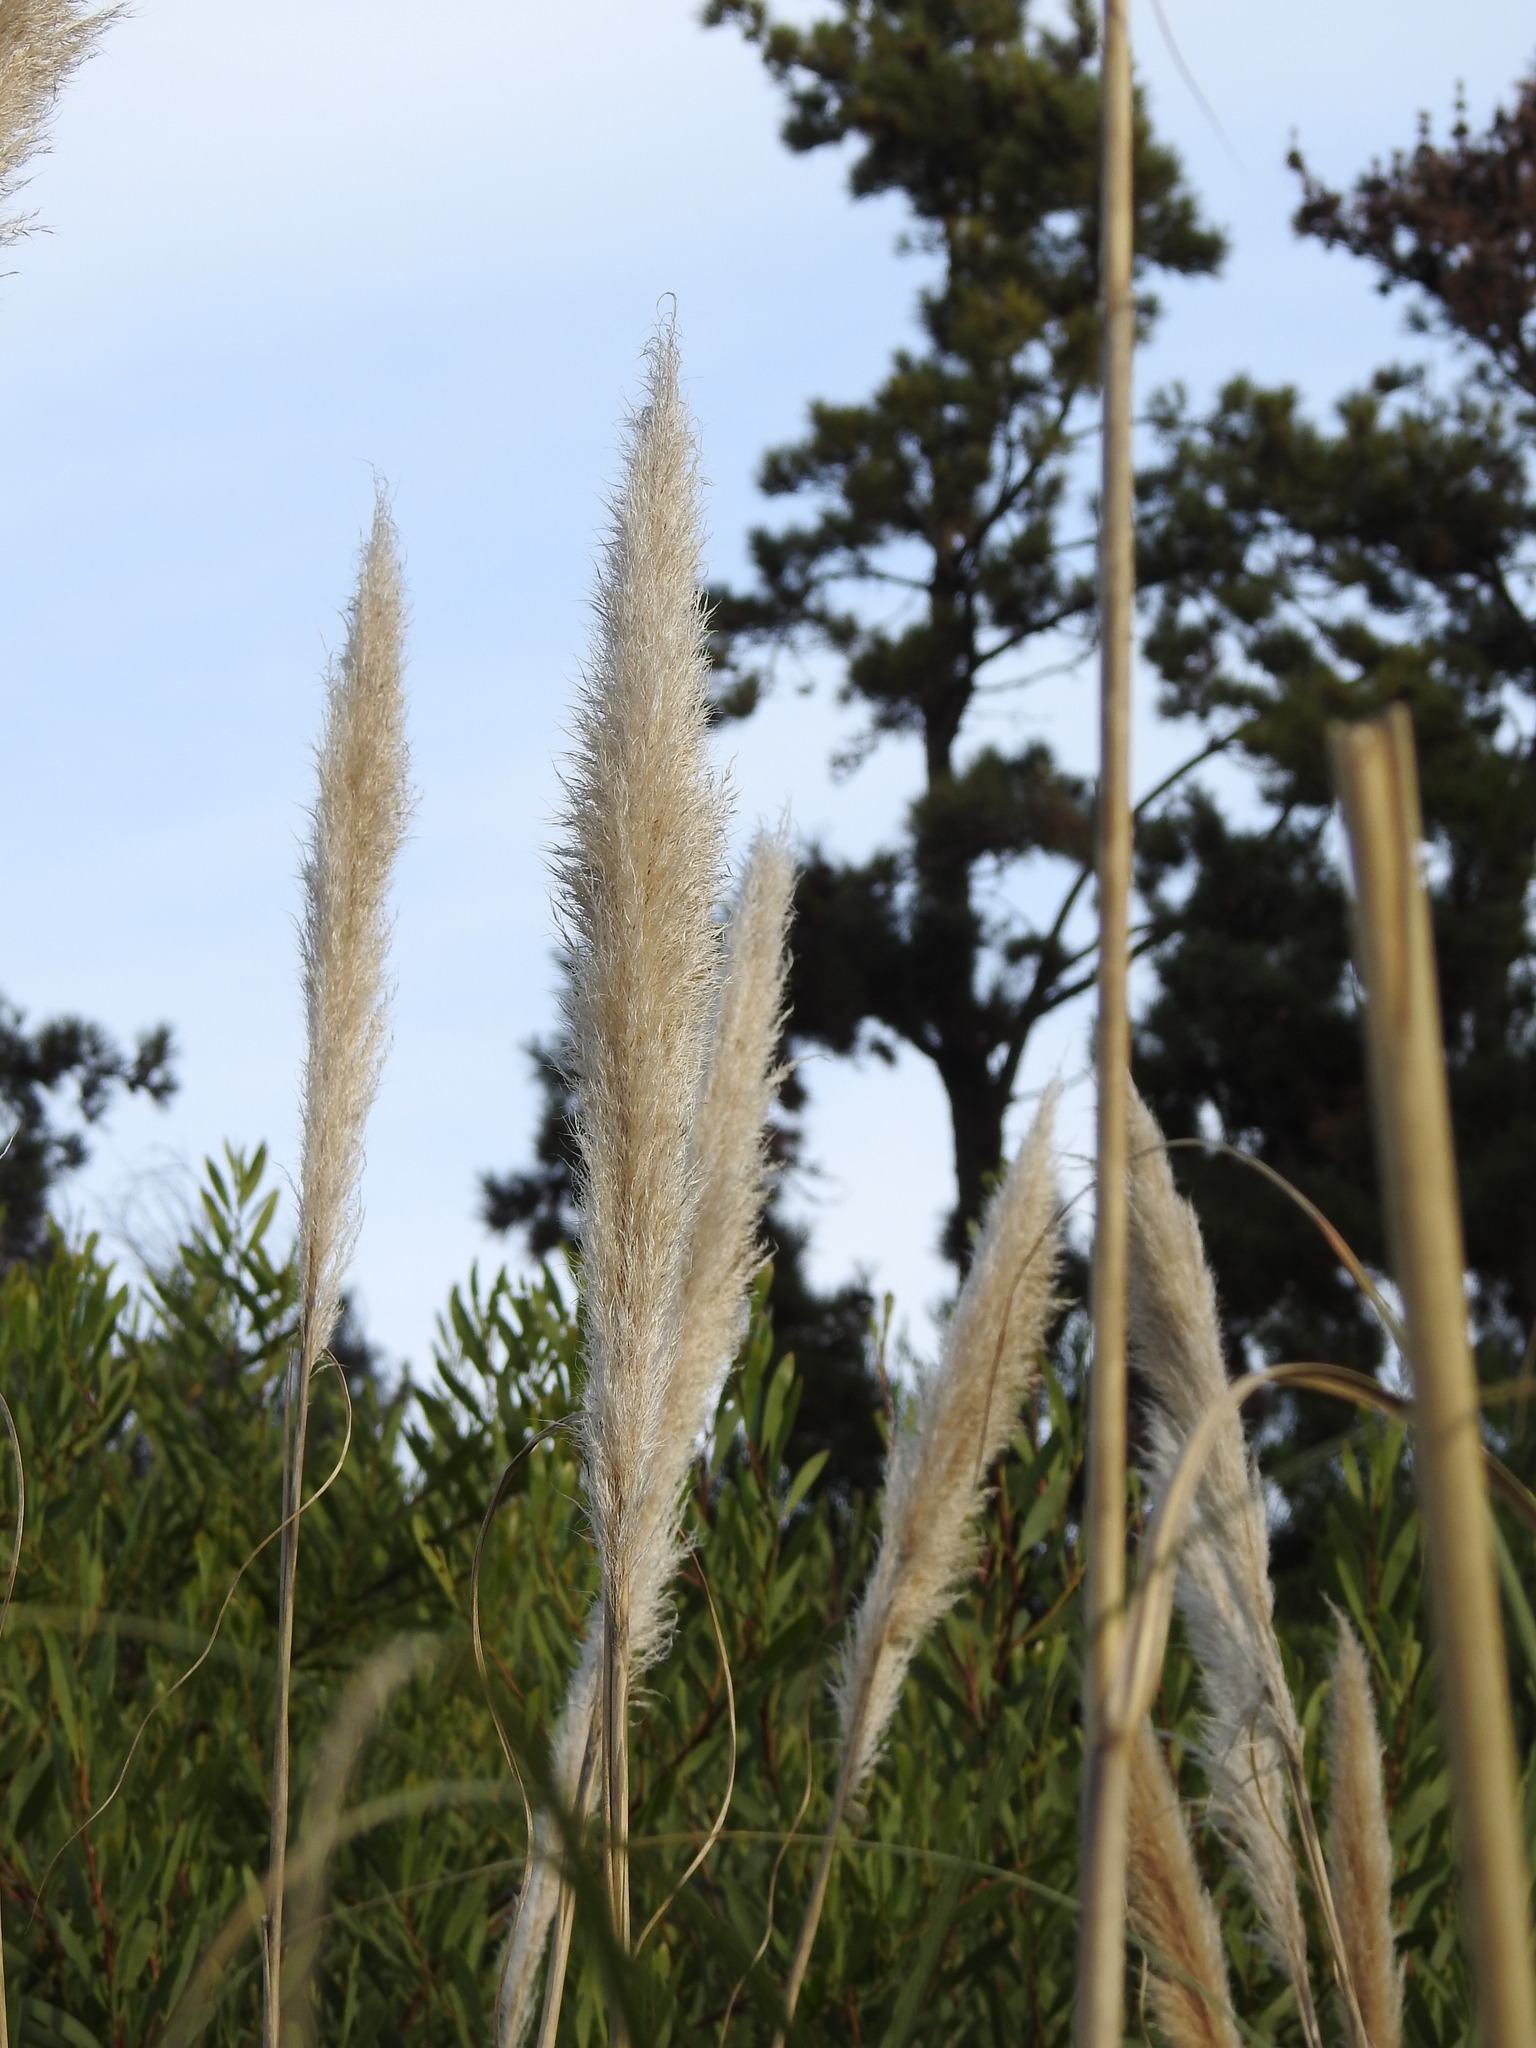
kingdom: Plantae
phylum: Tracheophyta
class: Liliopsida
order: Poales
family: Poaceae
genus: Cortaderia
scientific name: Cortaderia selloana
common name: Uruguayan pampas grass
